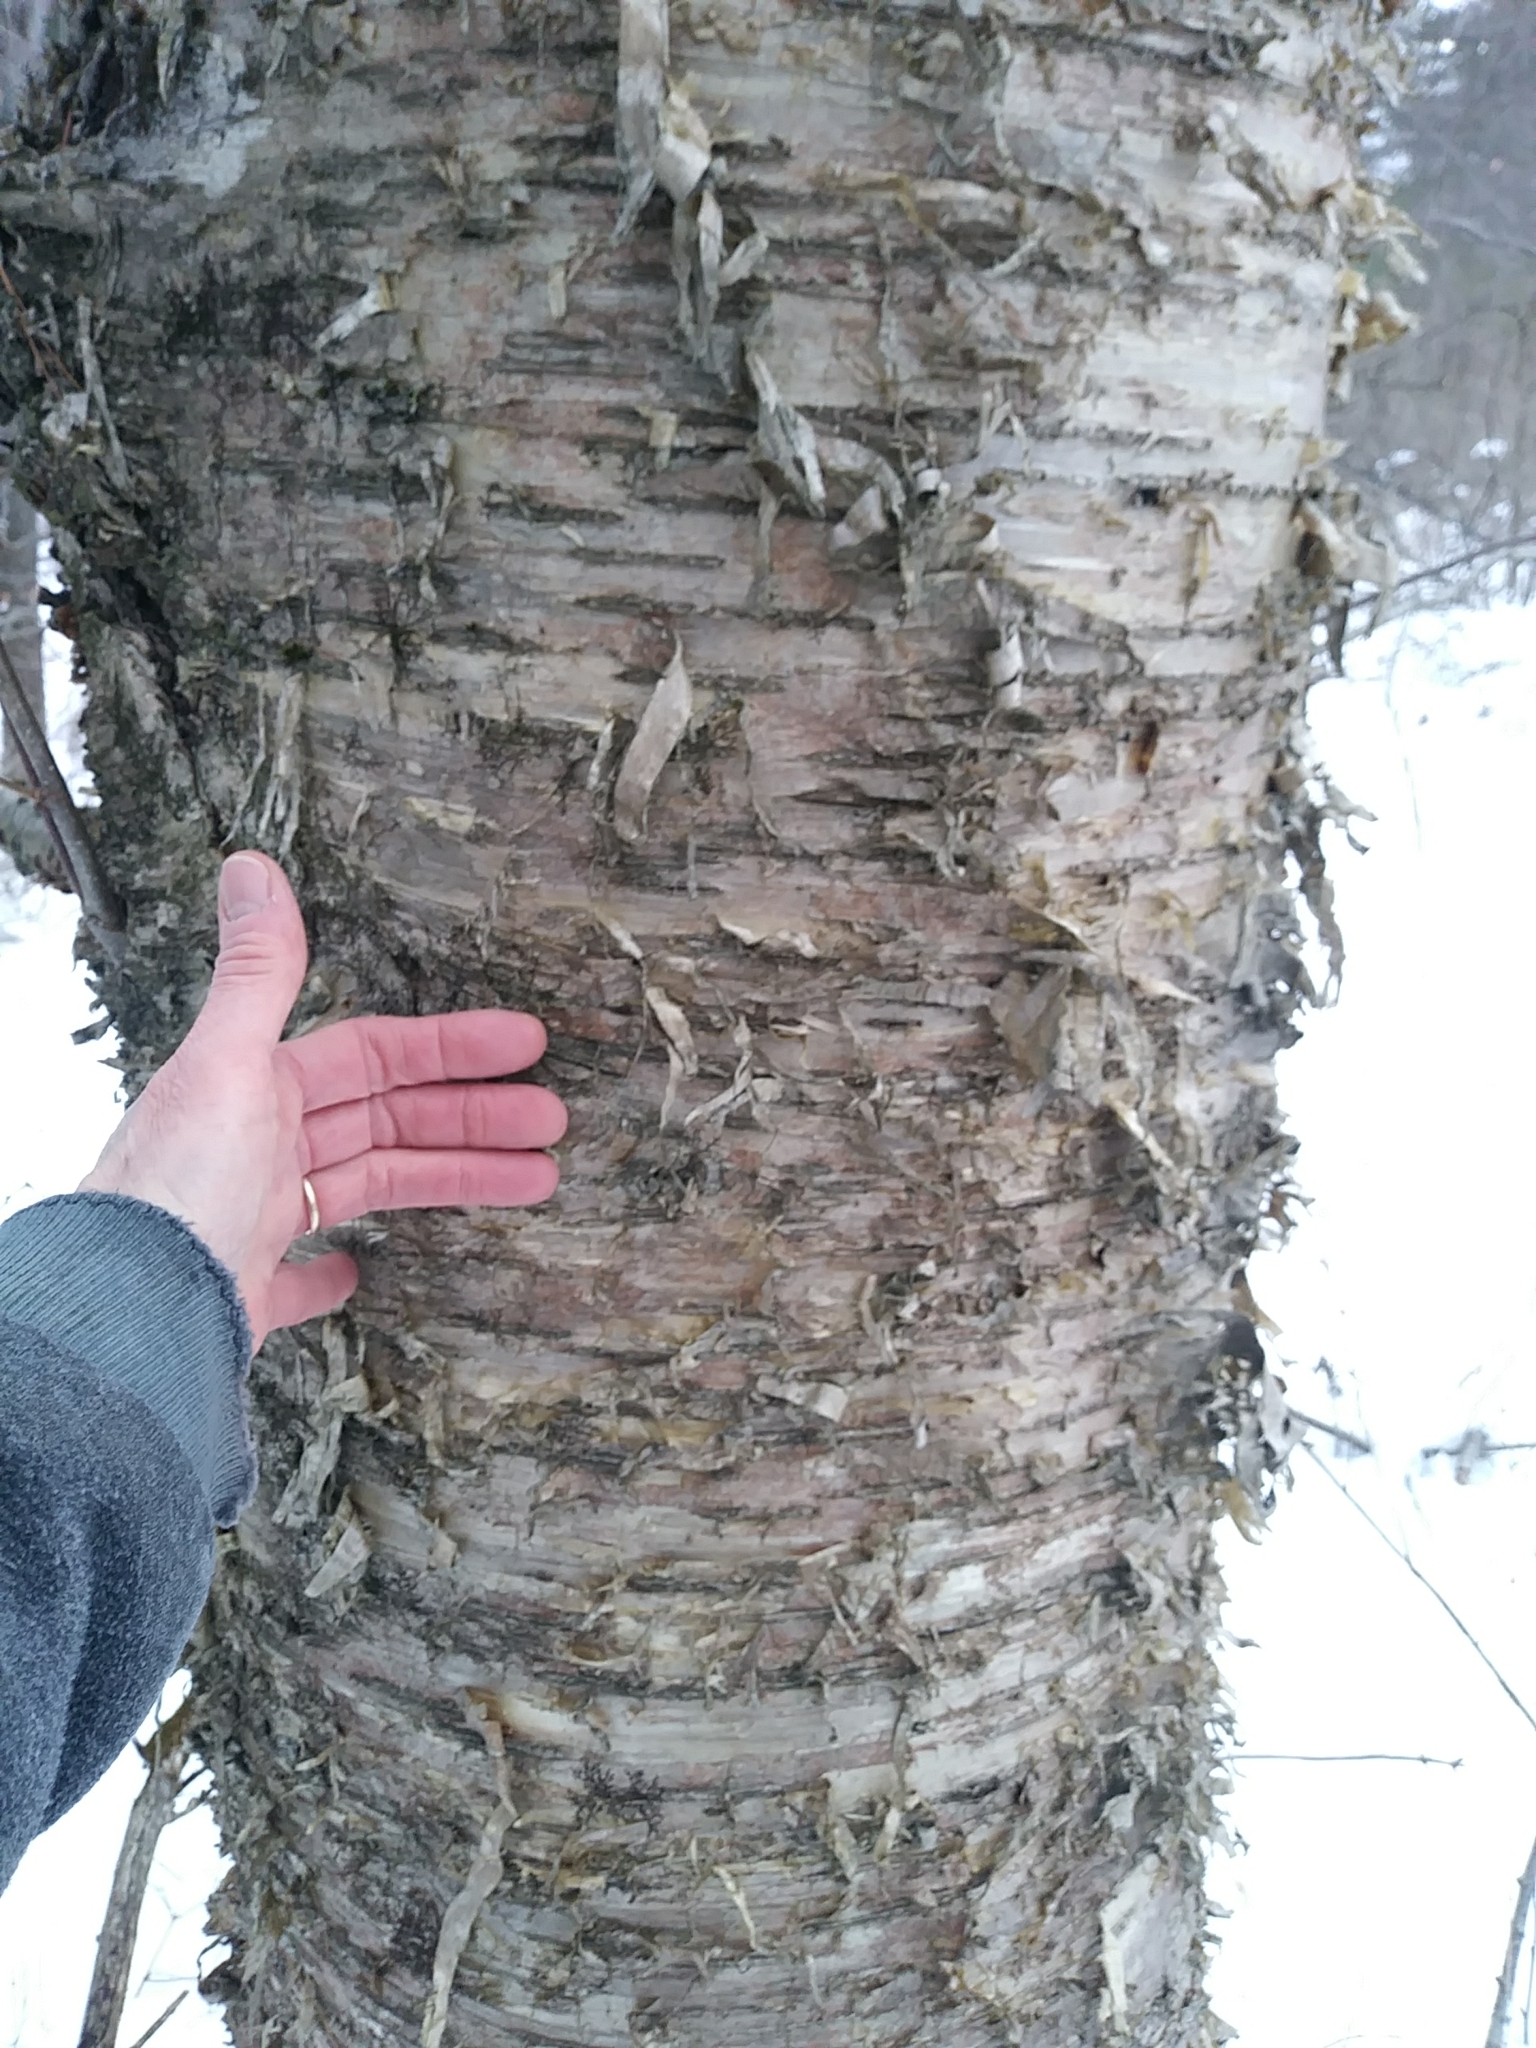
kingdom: Plantae
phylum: Tracheophyta
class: Magnoliopsida
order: Fagales
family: Betulaceae
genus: Betula
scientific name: Betula alleghaniensis
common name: Yellow birch
